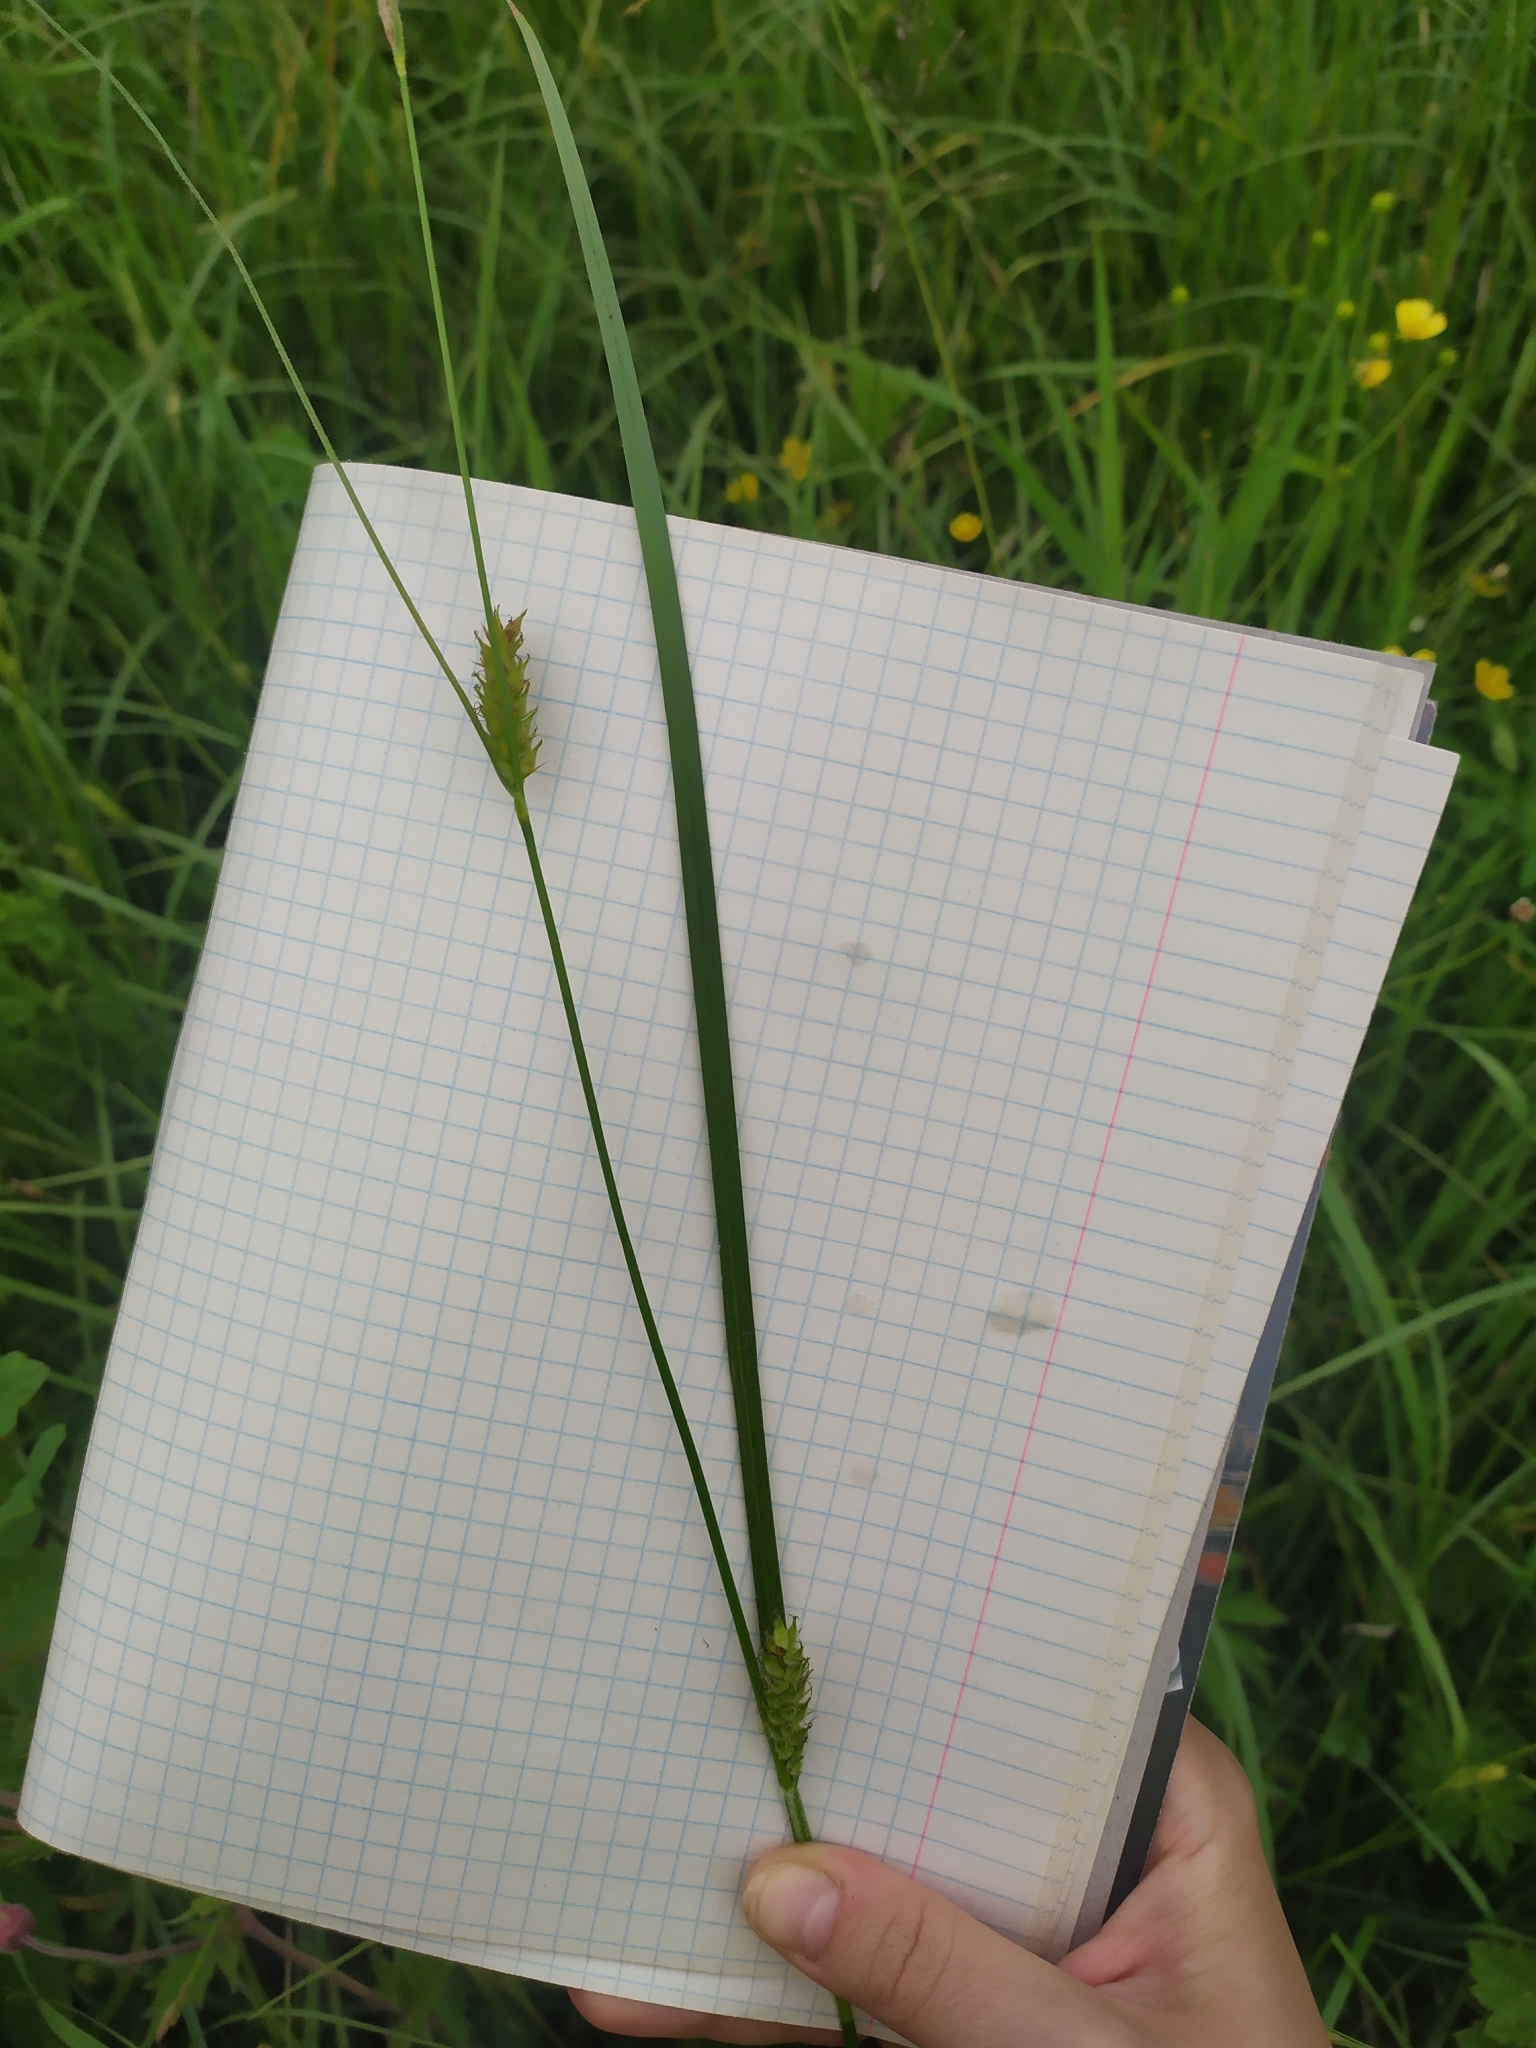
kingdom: Plantae
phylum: Tracheophyta
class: Liliopsida
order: Poales
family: Cyperaceae
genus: Carex
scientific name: Carex hirta
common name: Hairy sedge
